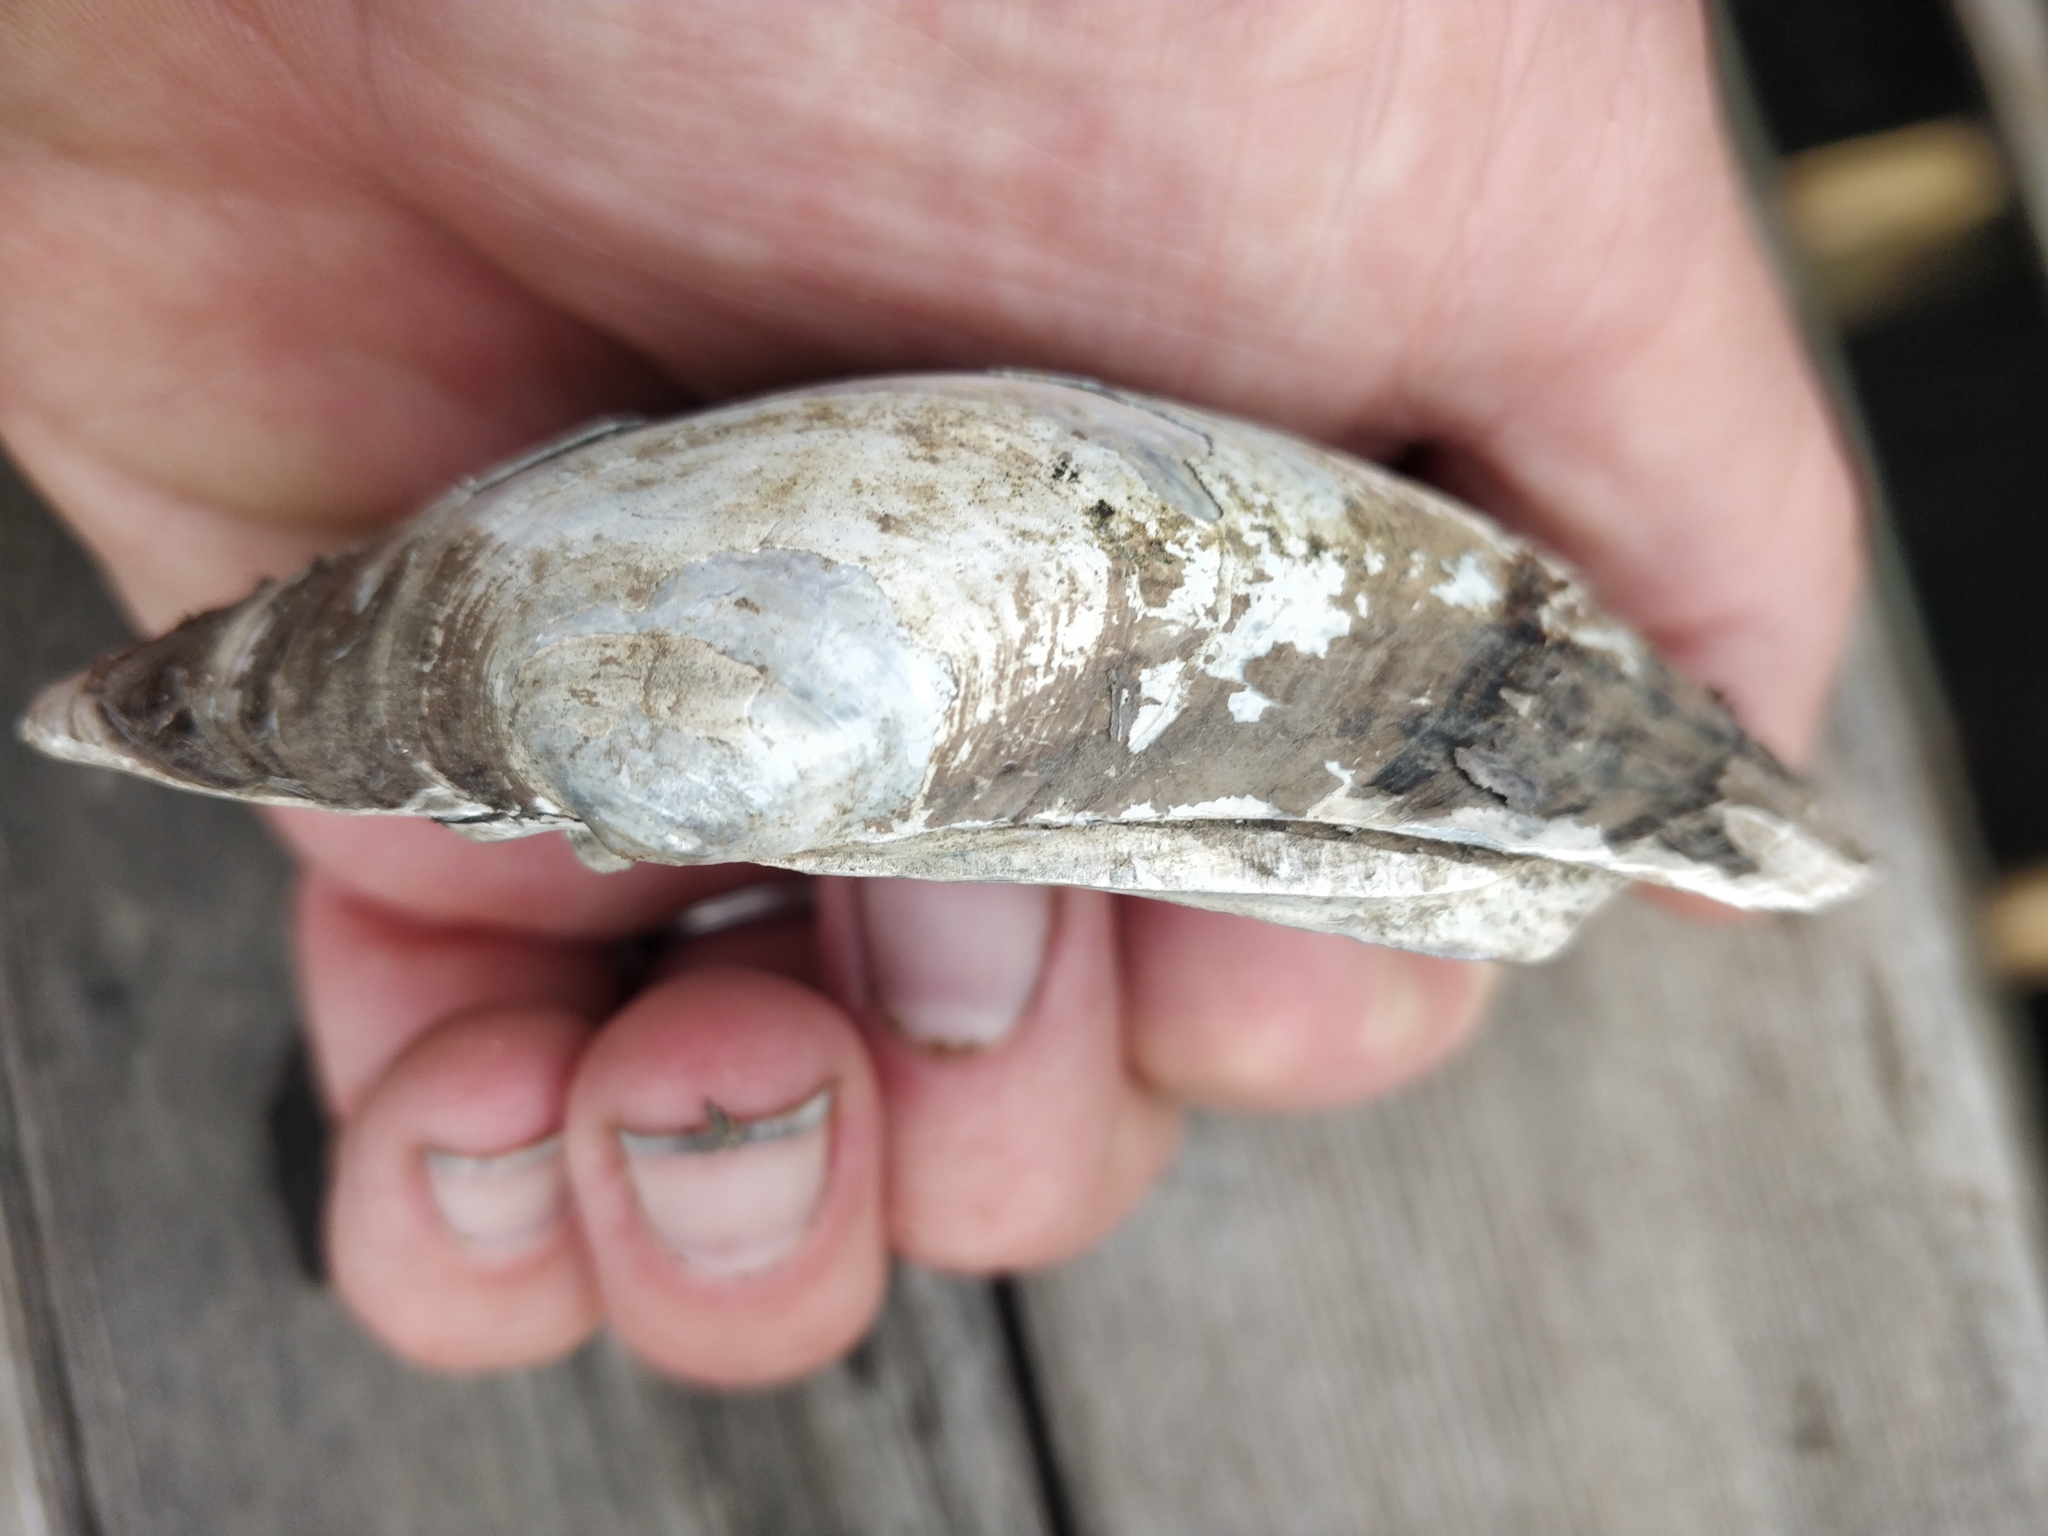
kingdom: Animalia
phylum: Mollusca
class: Bivalvia
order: Unionida
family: Unionidae
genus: Lampsilis
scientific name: Lampsilis cardium
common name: Plain pocketbook
